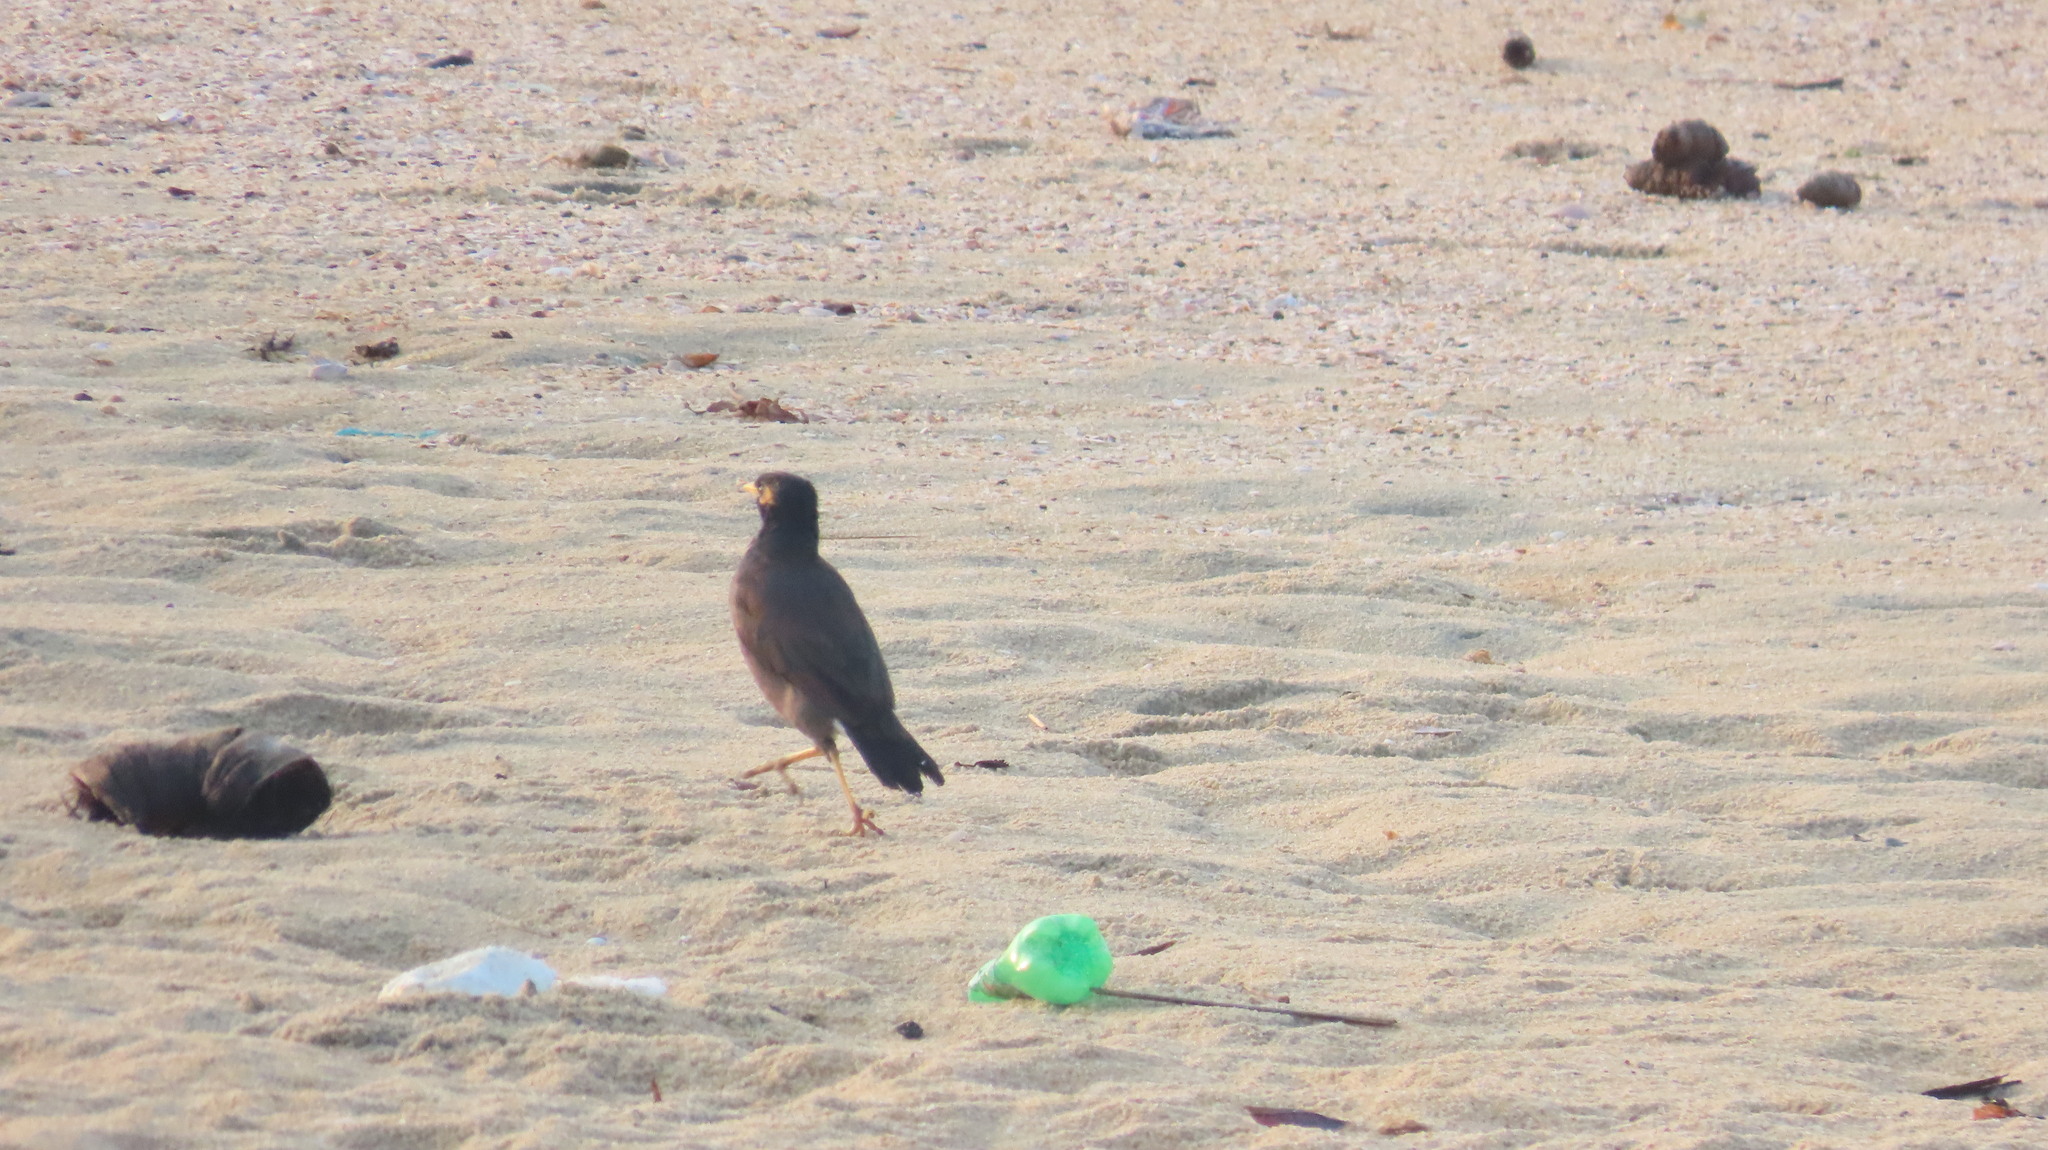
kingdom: Animalia
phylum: Chordata
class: Aves
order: Passeriformes
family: Sturnidae
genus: Acridotheres
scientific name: Acridotheres tristis
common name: Common myna
